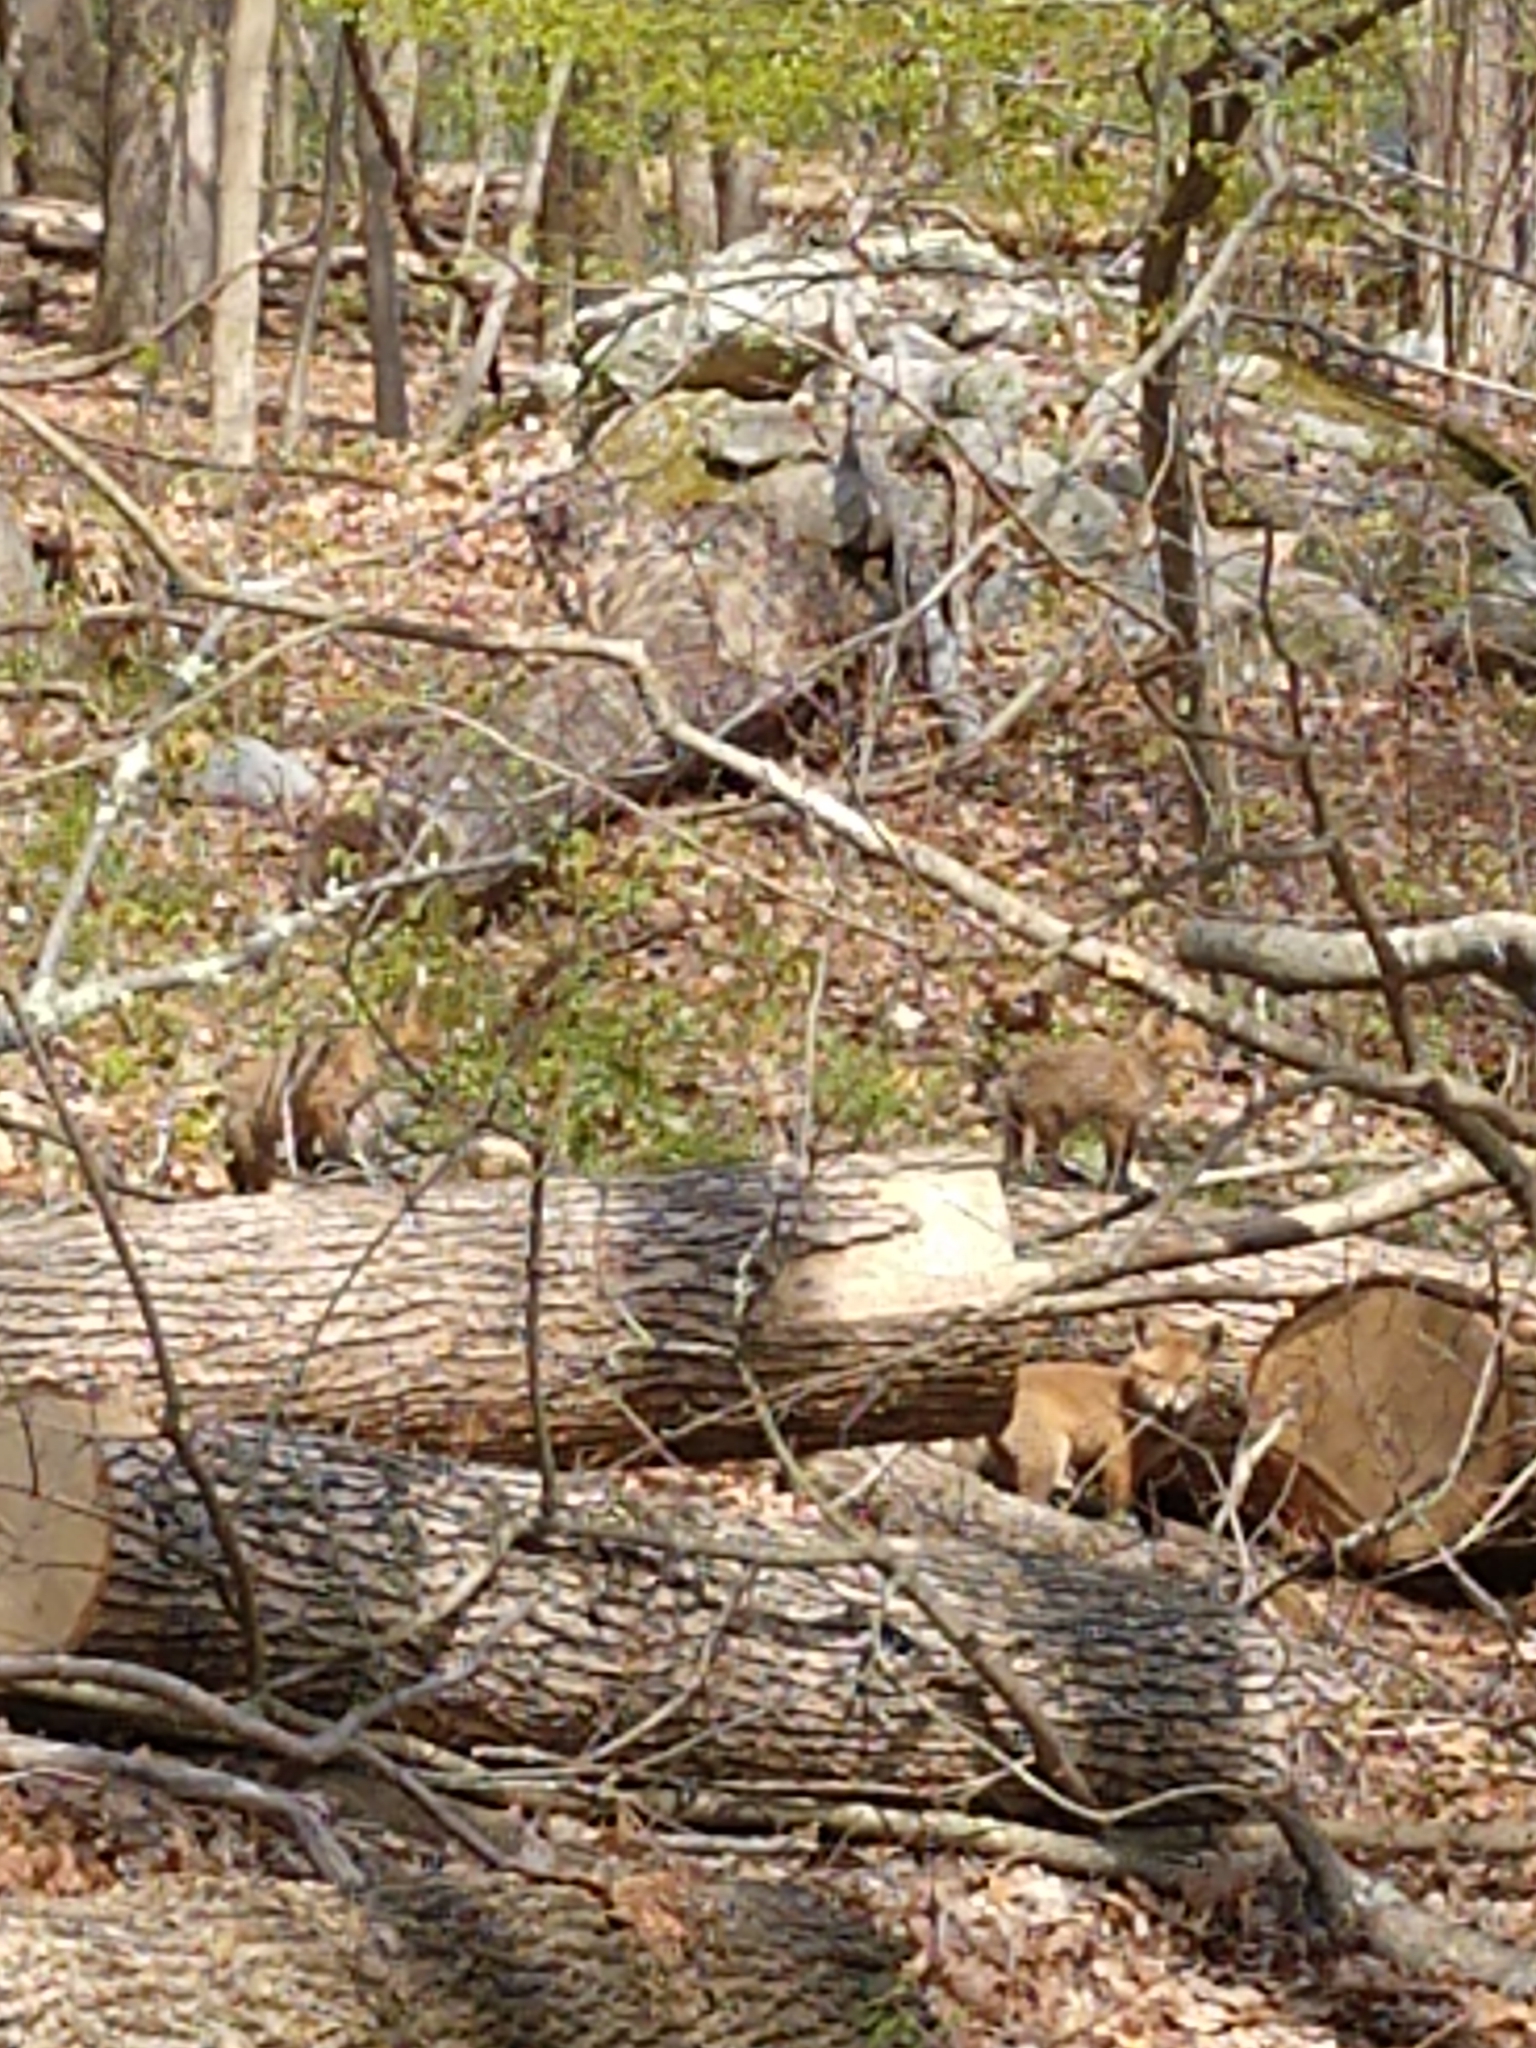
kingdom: Animalia
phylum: Chordata
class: Mammalia
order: Carnivora
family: Canidae
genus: Vulpes
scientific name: Vulpes vulpes
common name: Red fox
